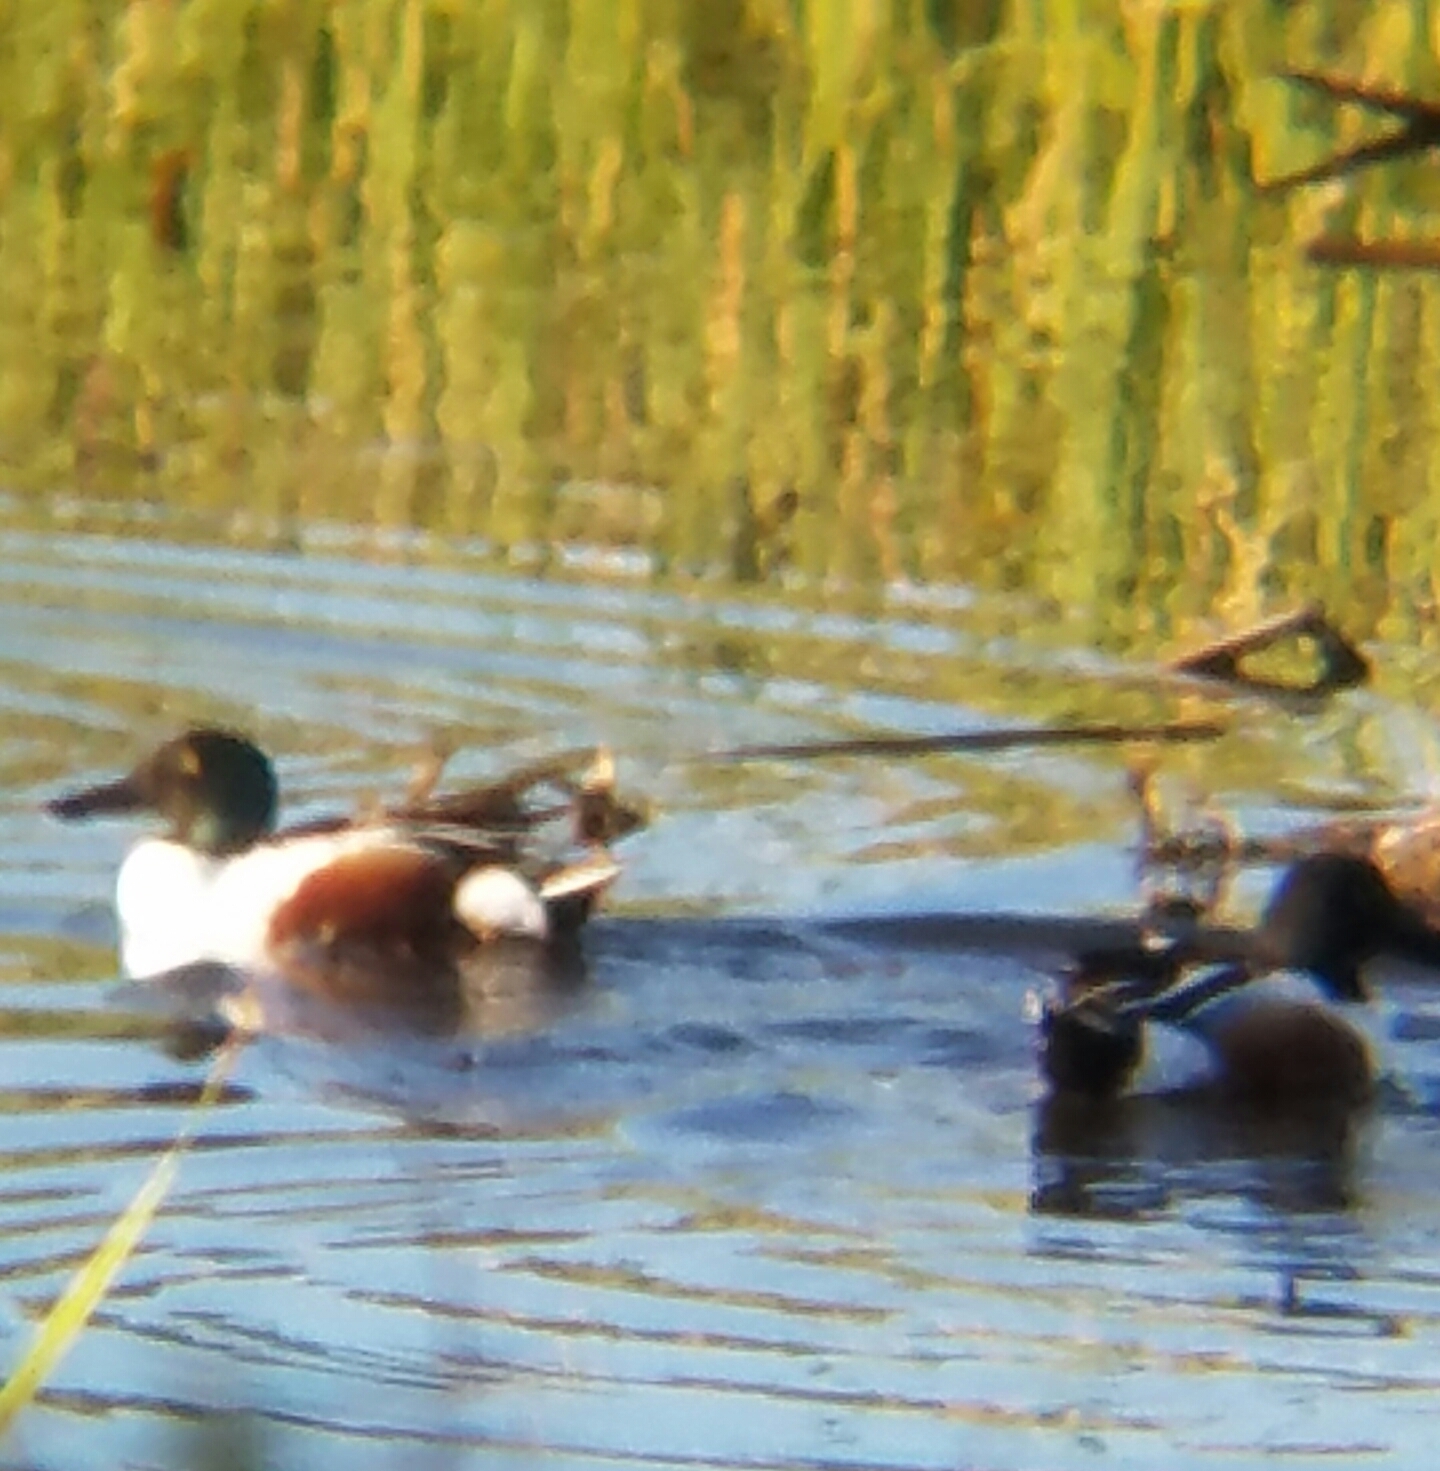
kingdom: Animalia
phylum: Chordata
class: Aves
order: Anseriformes
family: Anatidae
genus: Spatula
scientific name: Spatula clypeata
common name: Northern shoveler
